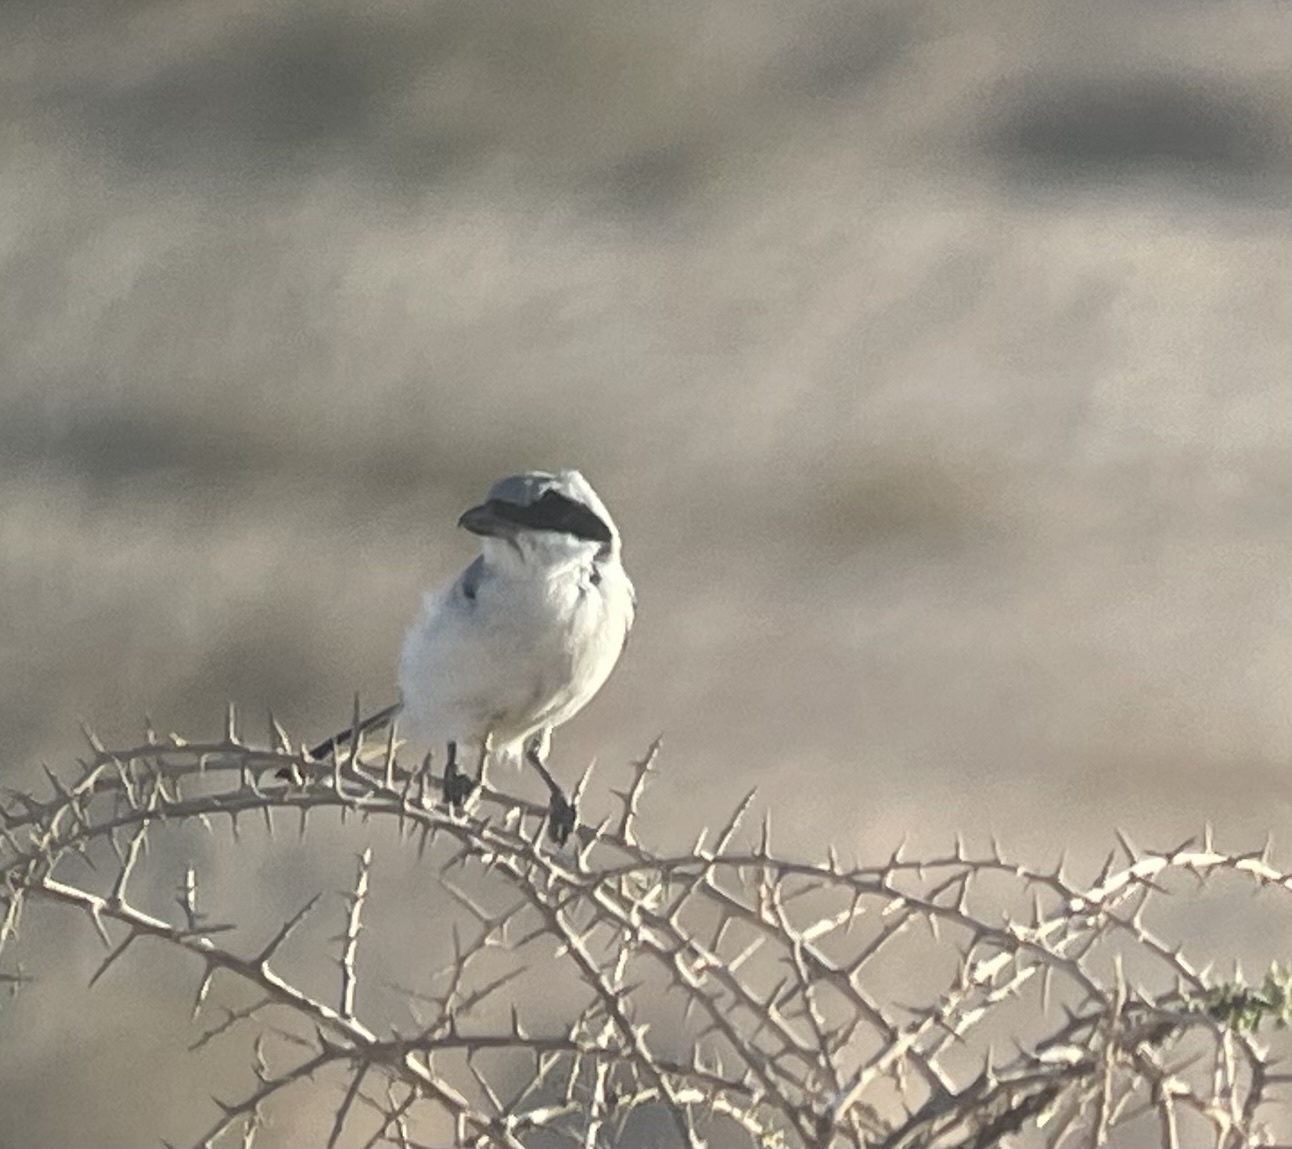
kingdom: Animalia
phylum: Chordata
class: Aves
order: Passeriformes
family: Laniidae
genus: Lanius
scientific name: Lanius excubitor
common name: Great grey shrike
